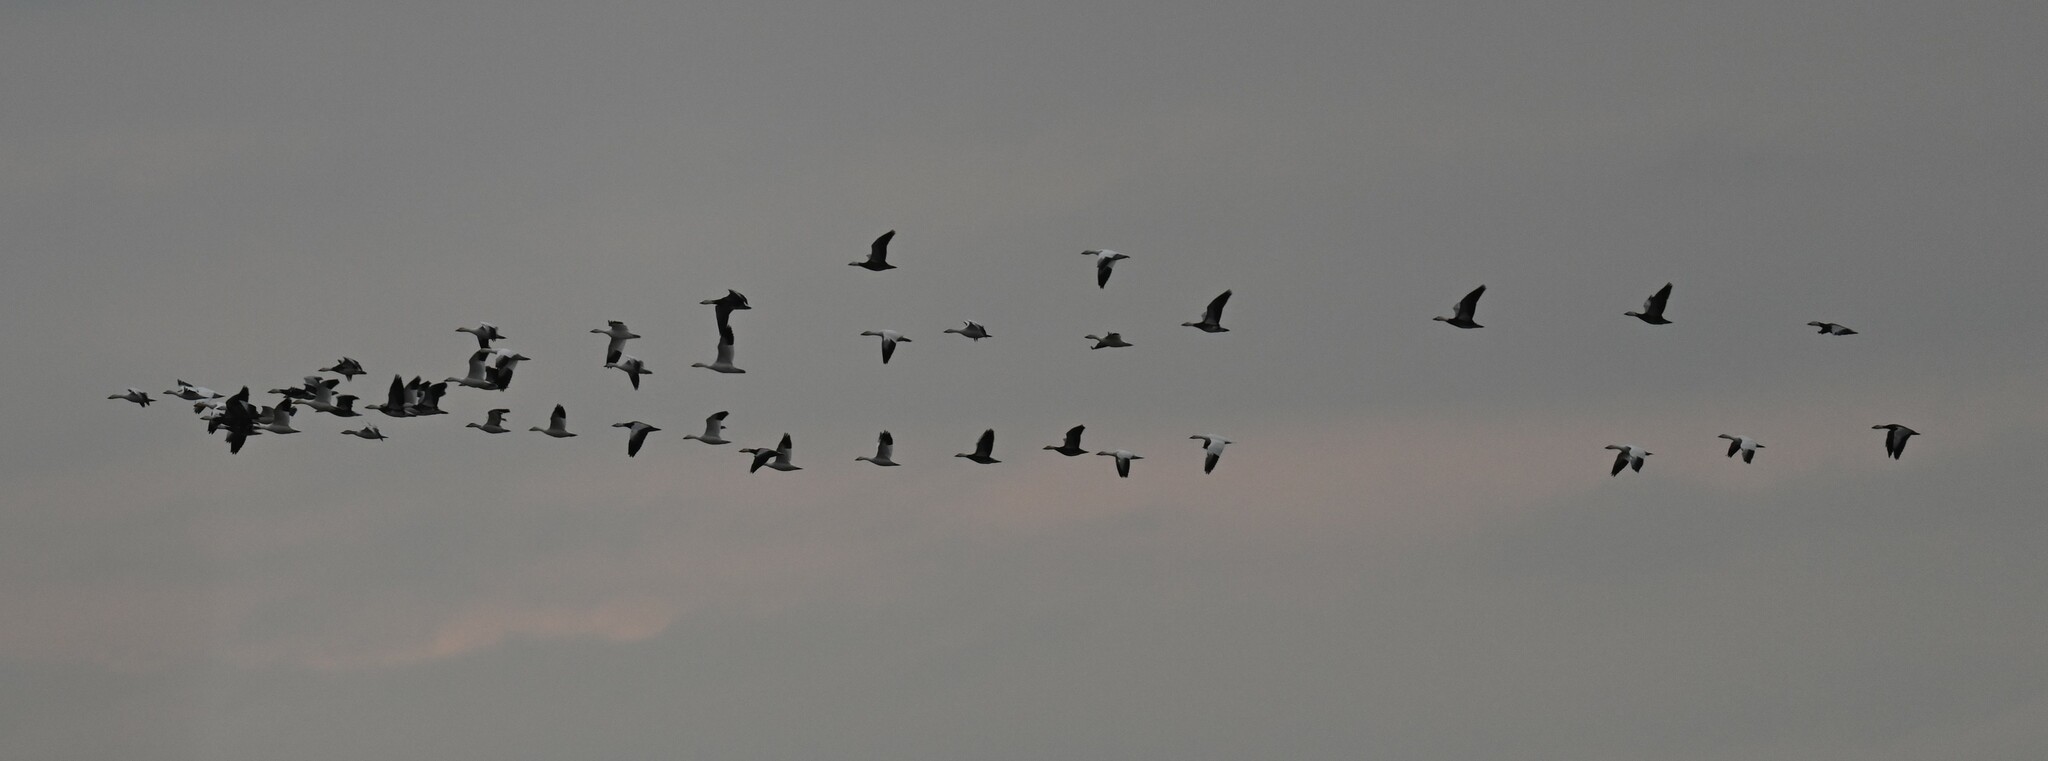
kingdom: Animalia
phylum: Chordata
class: Aves
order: Anseriformes
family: Anatidae
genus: Anser
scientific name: Anser caerulescens
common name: Snow goose
